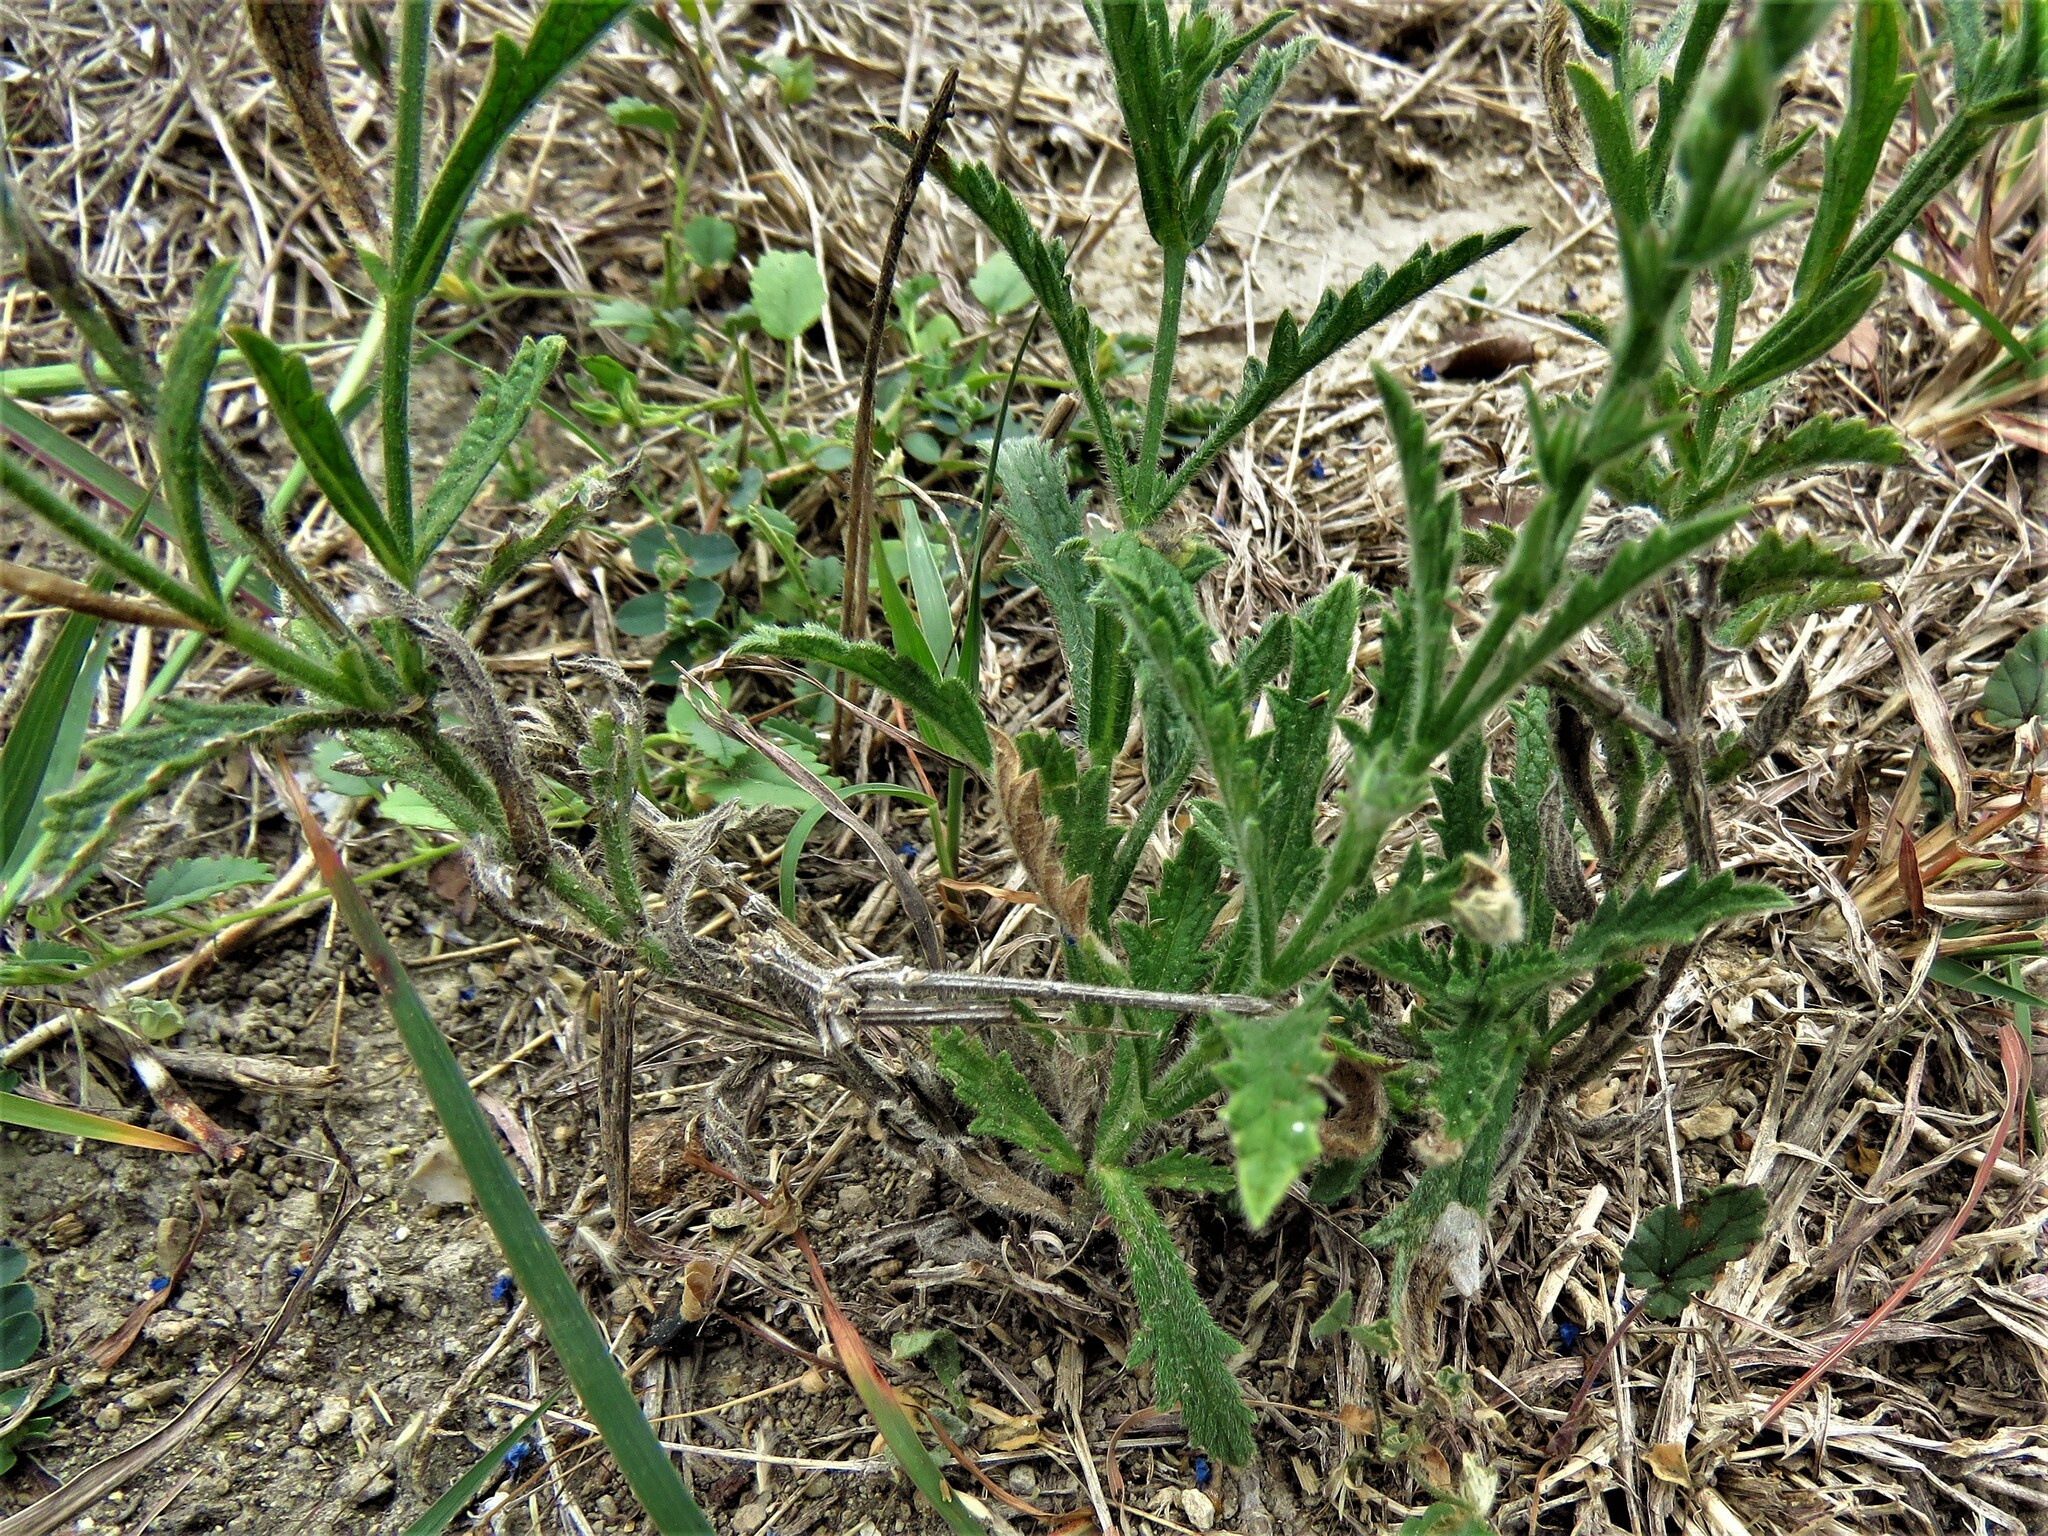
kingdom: Plantae
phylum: Tracheophyta
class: Magnoliopsida
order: Lamiales
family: Verbenaceae
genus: Verbena
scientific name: Verbena canescens
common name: Gray vervain
